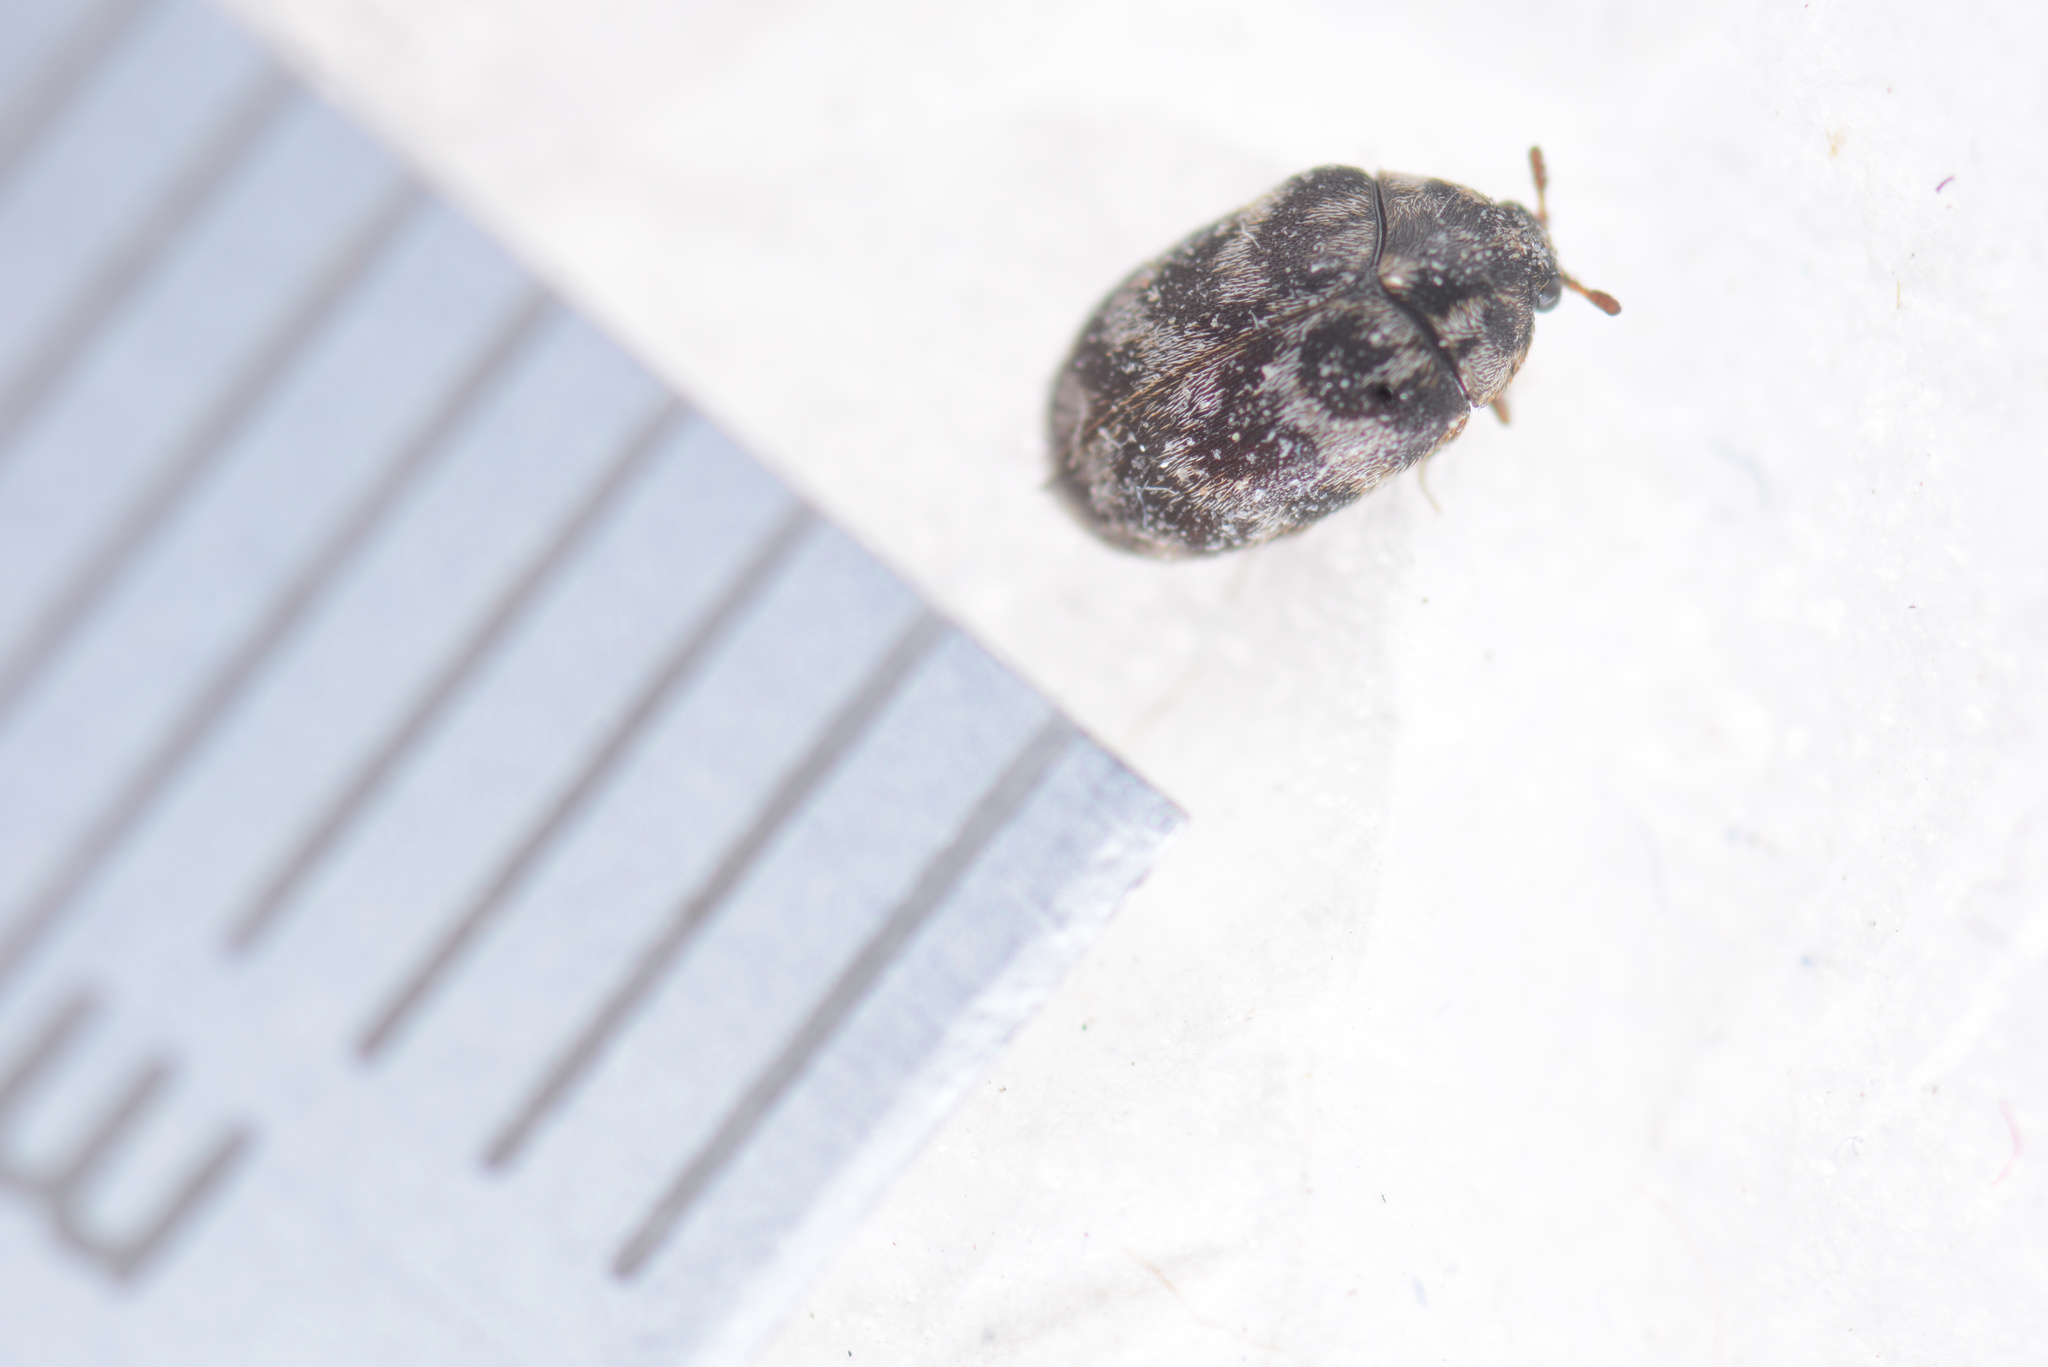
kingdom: Animalia
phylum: Arthropoda
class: Insecta
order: Coleoptera
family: Dermestidae
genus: Anthrenocerus
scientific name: Anthrenocerus australis
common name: Australian carpet beetle
